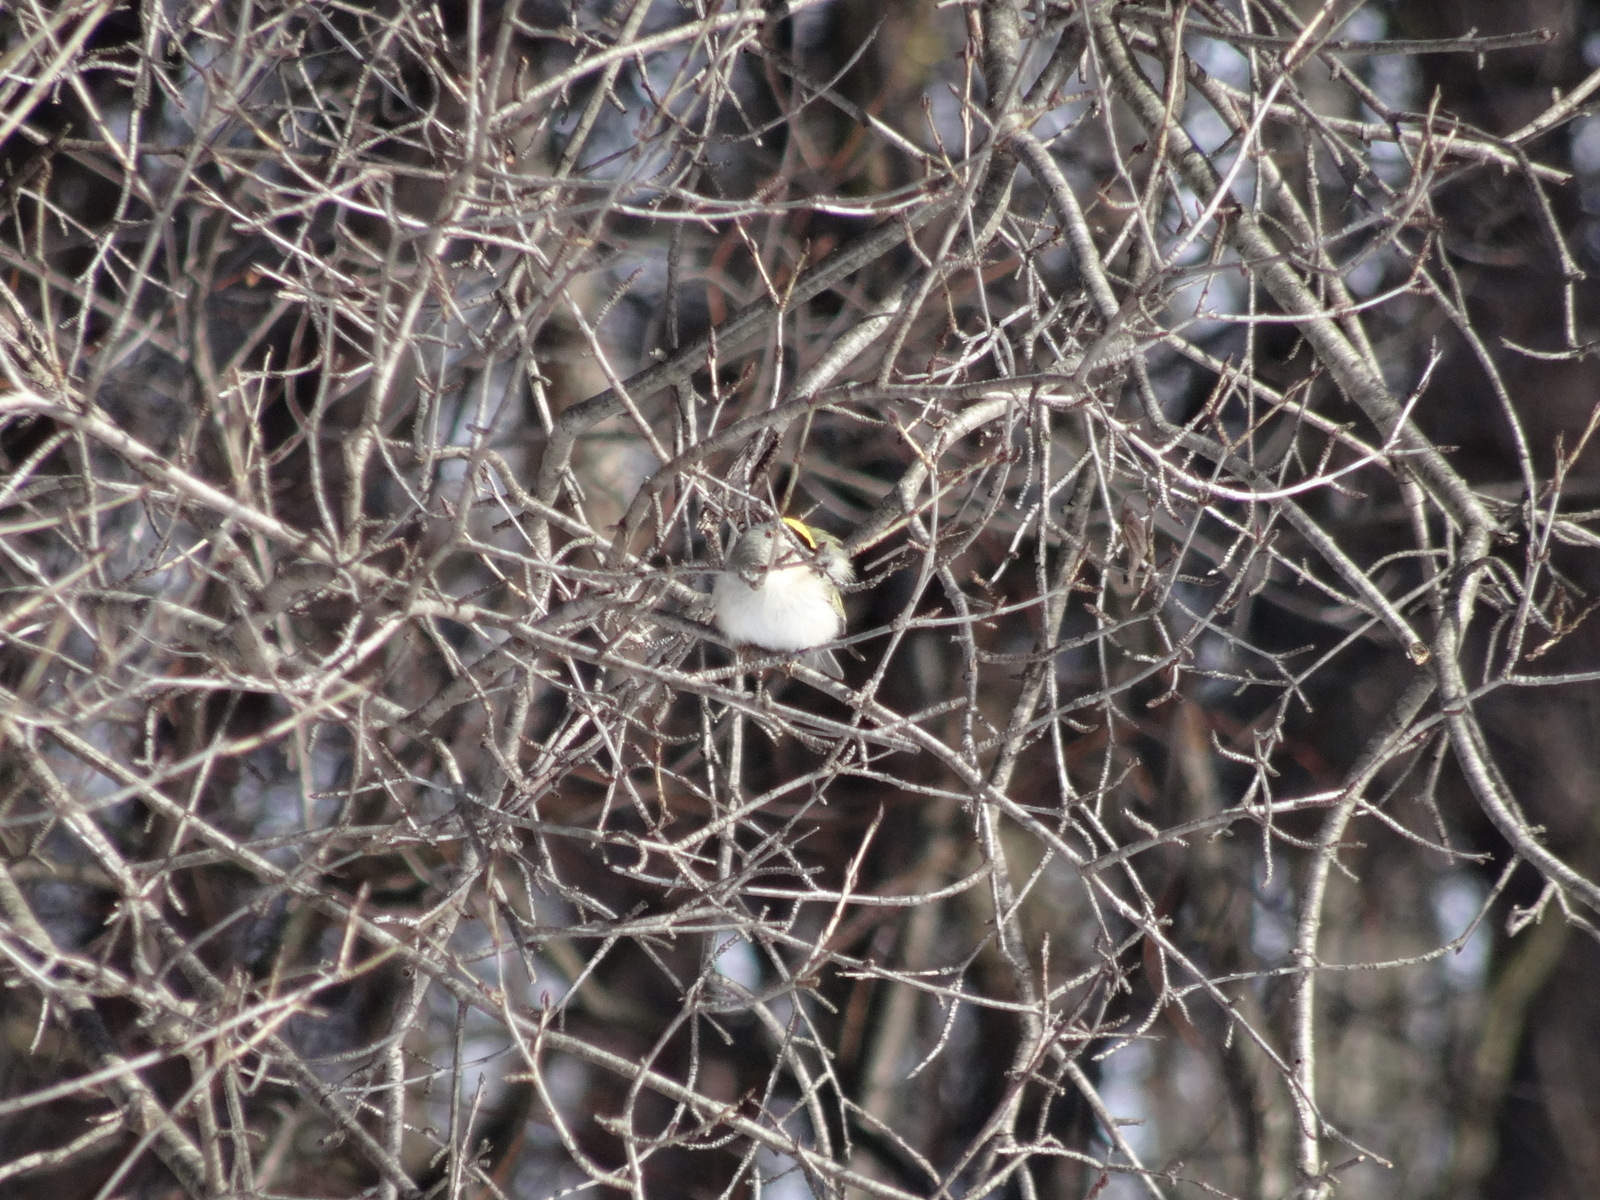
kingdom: Animalia
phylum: Chordata
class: Aves
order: Passeriformes
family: Regulidae
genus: Regulus
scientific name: Regulus satrapa
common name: Golden-crowned kinglet
